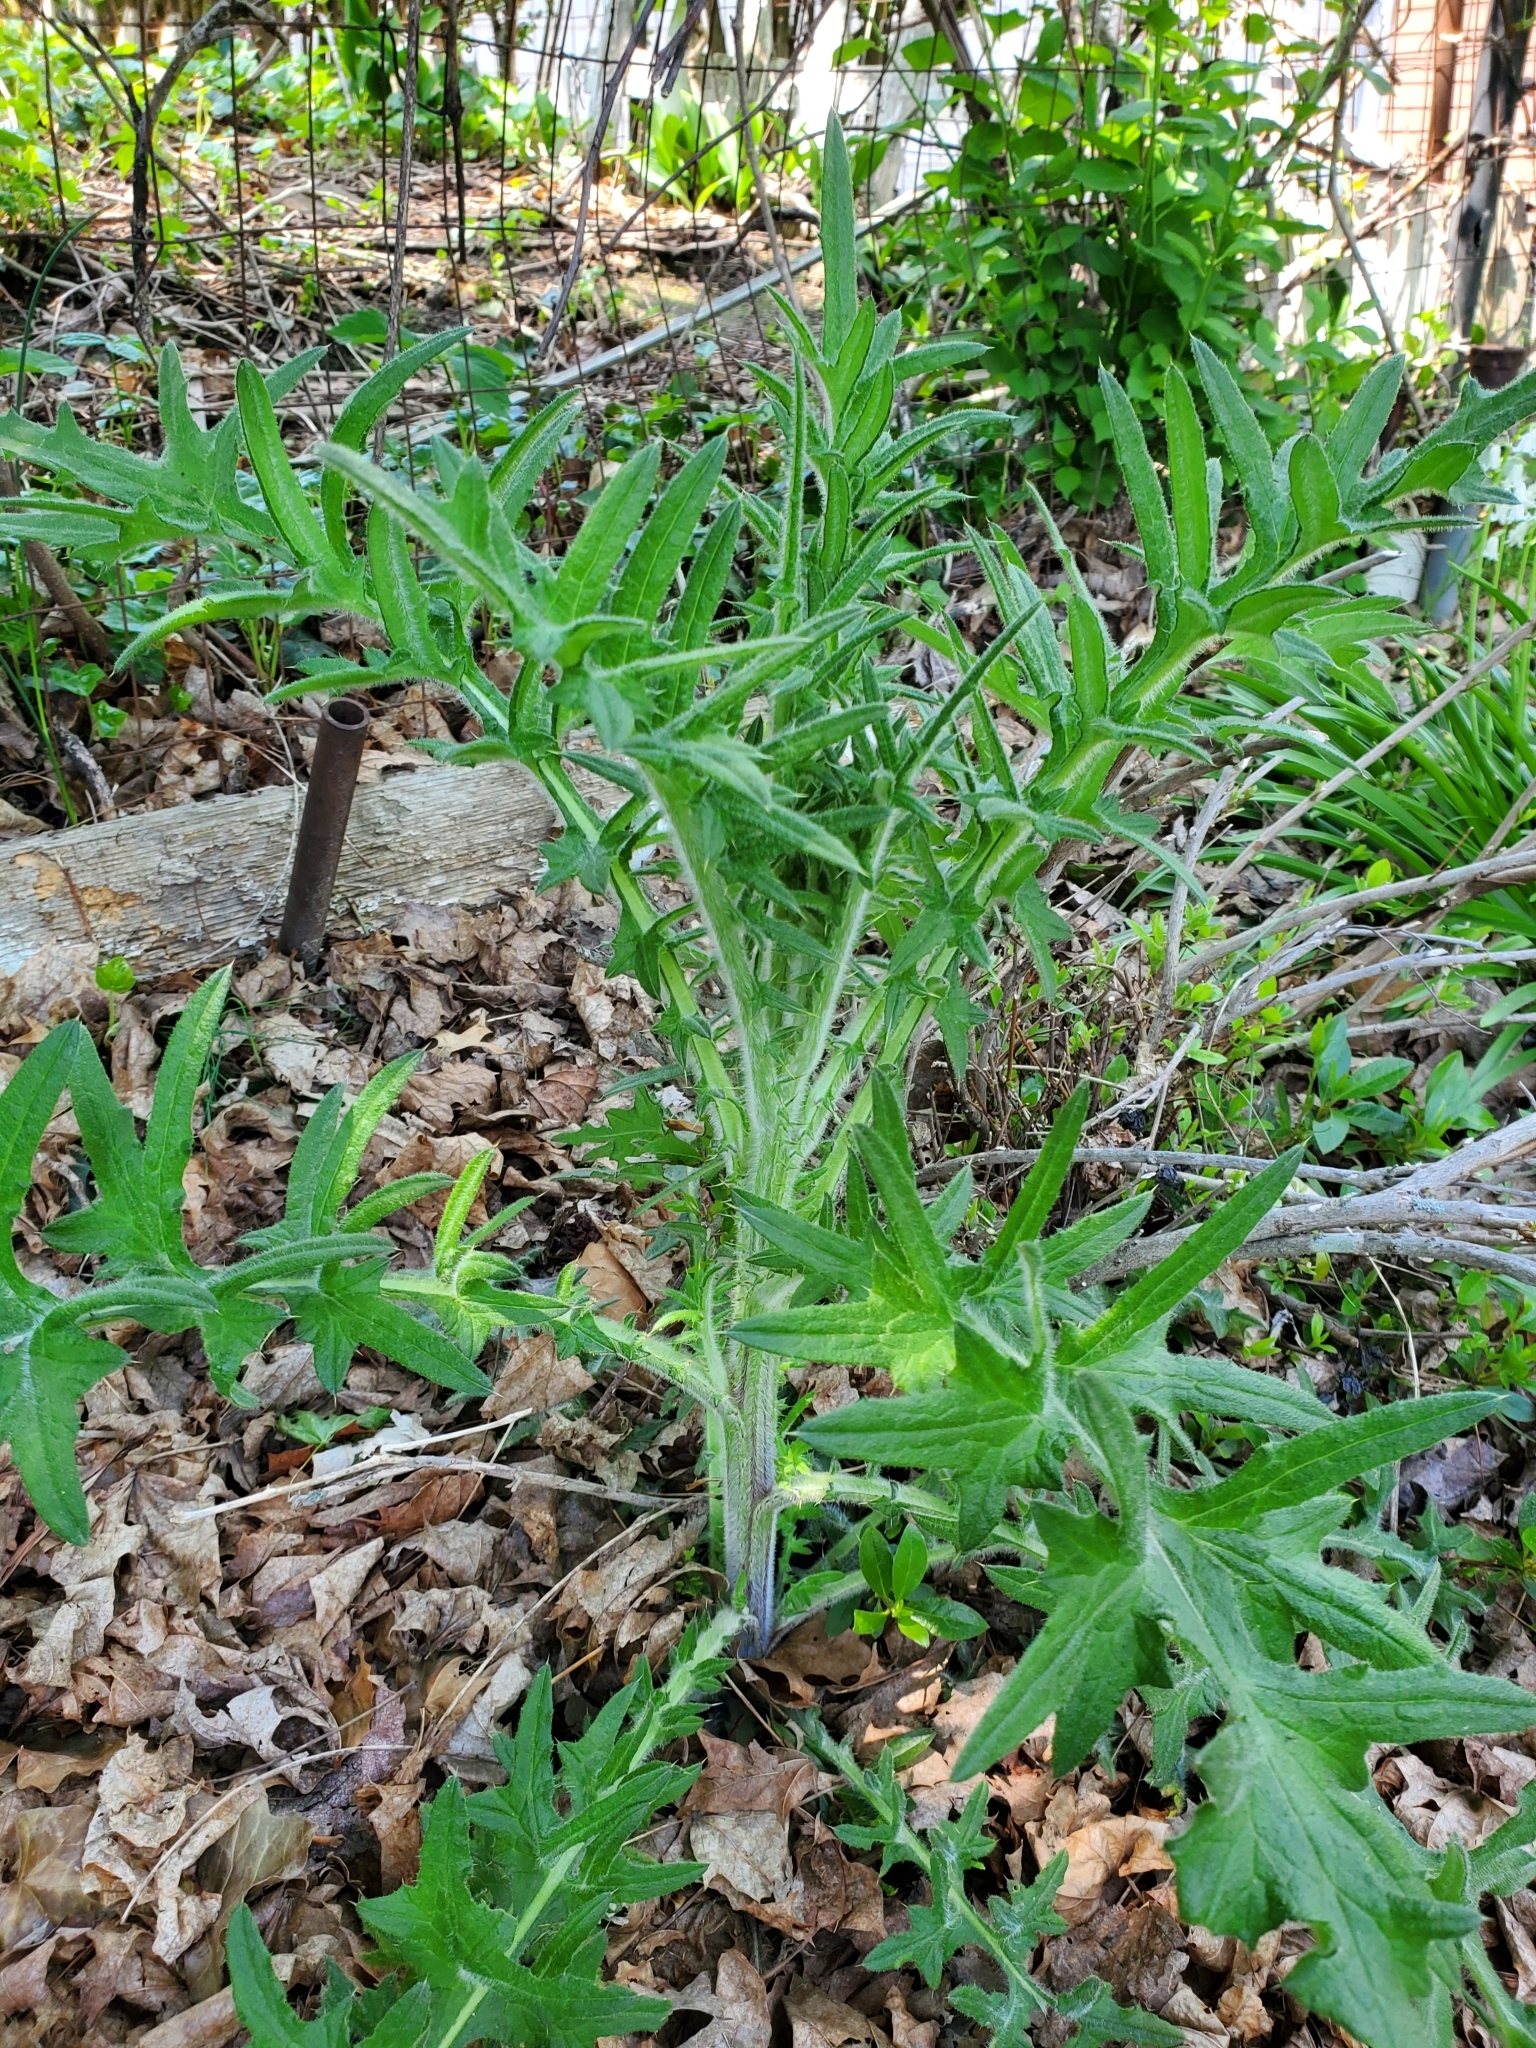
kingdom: Plantae
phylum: Tracheophyta
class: Magnoliopsida
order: Asterales
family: Asteraceae
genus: Cirsium
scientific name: Cirsium vulgare
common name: Bull thistle
